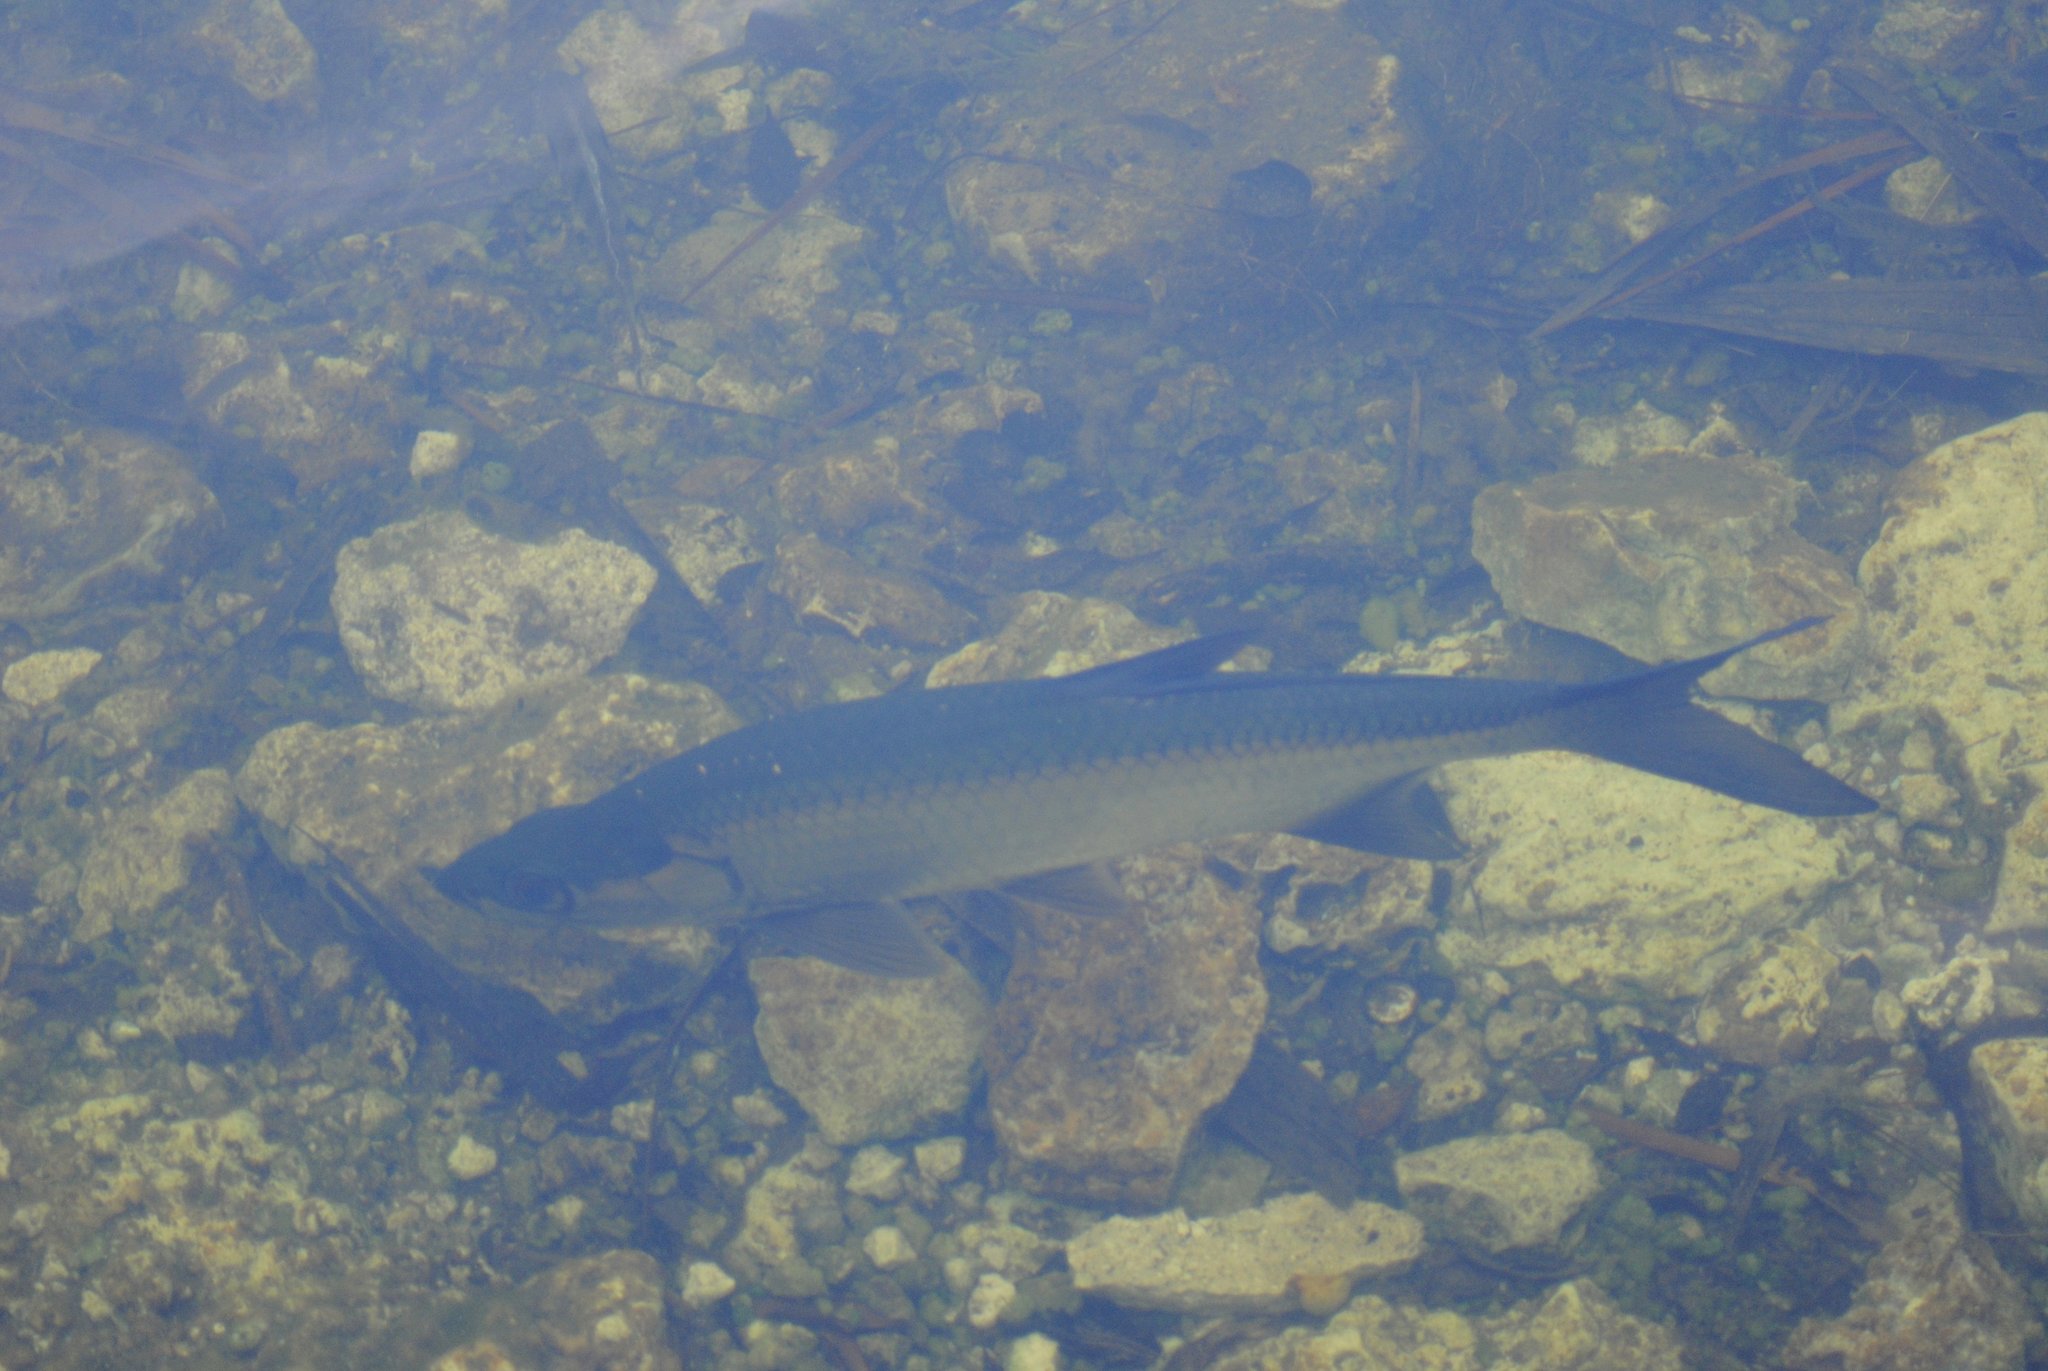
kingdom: Animalia
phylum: Chordata
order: Elopiformes
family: Megalopidae
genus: Megalops
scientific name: Megalops atlanticus
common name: Tarpon
